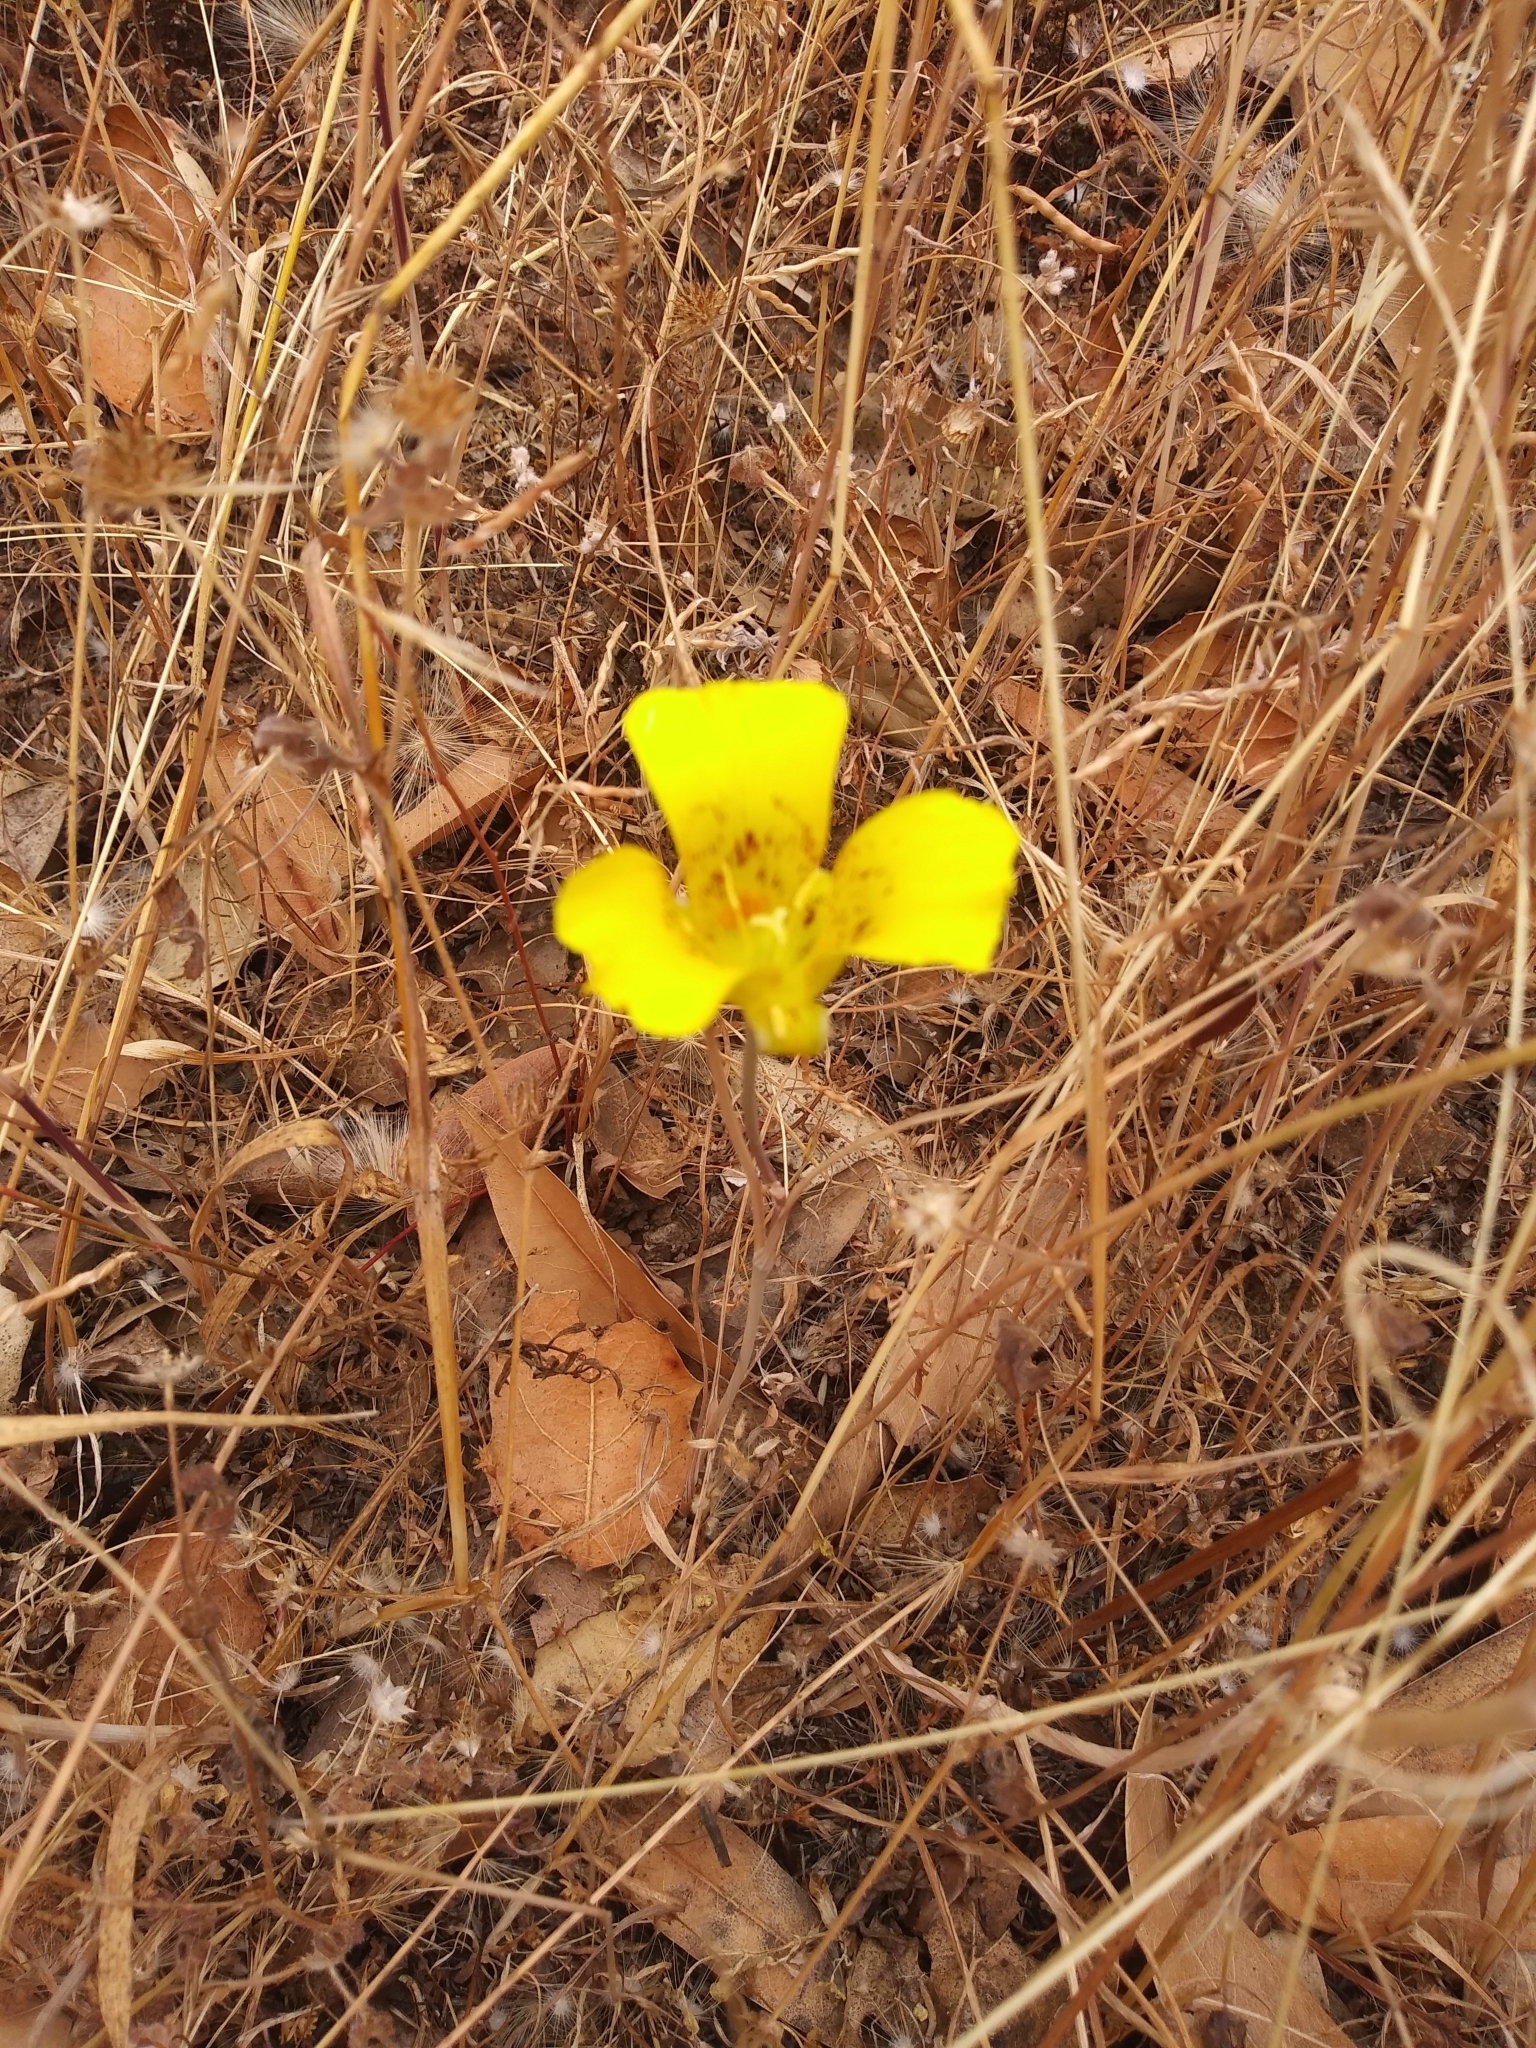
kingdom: Plantae
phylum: Tracheophyta
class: Liliopsida
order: Liliales
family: Liliaceae
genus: Calochortus
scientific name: Calochortus luteus
